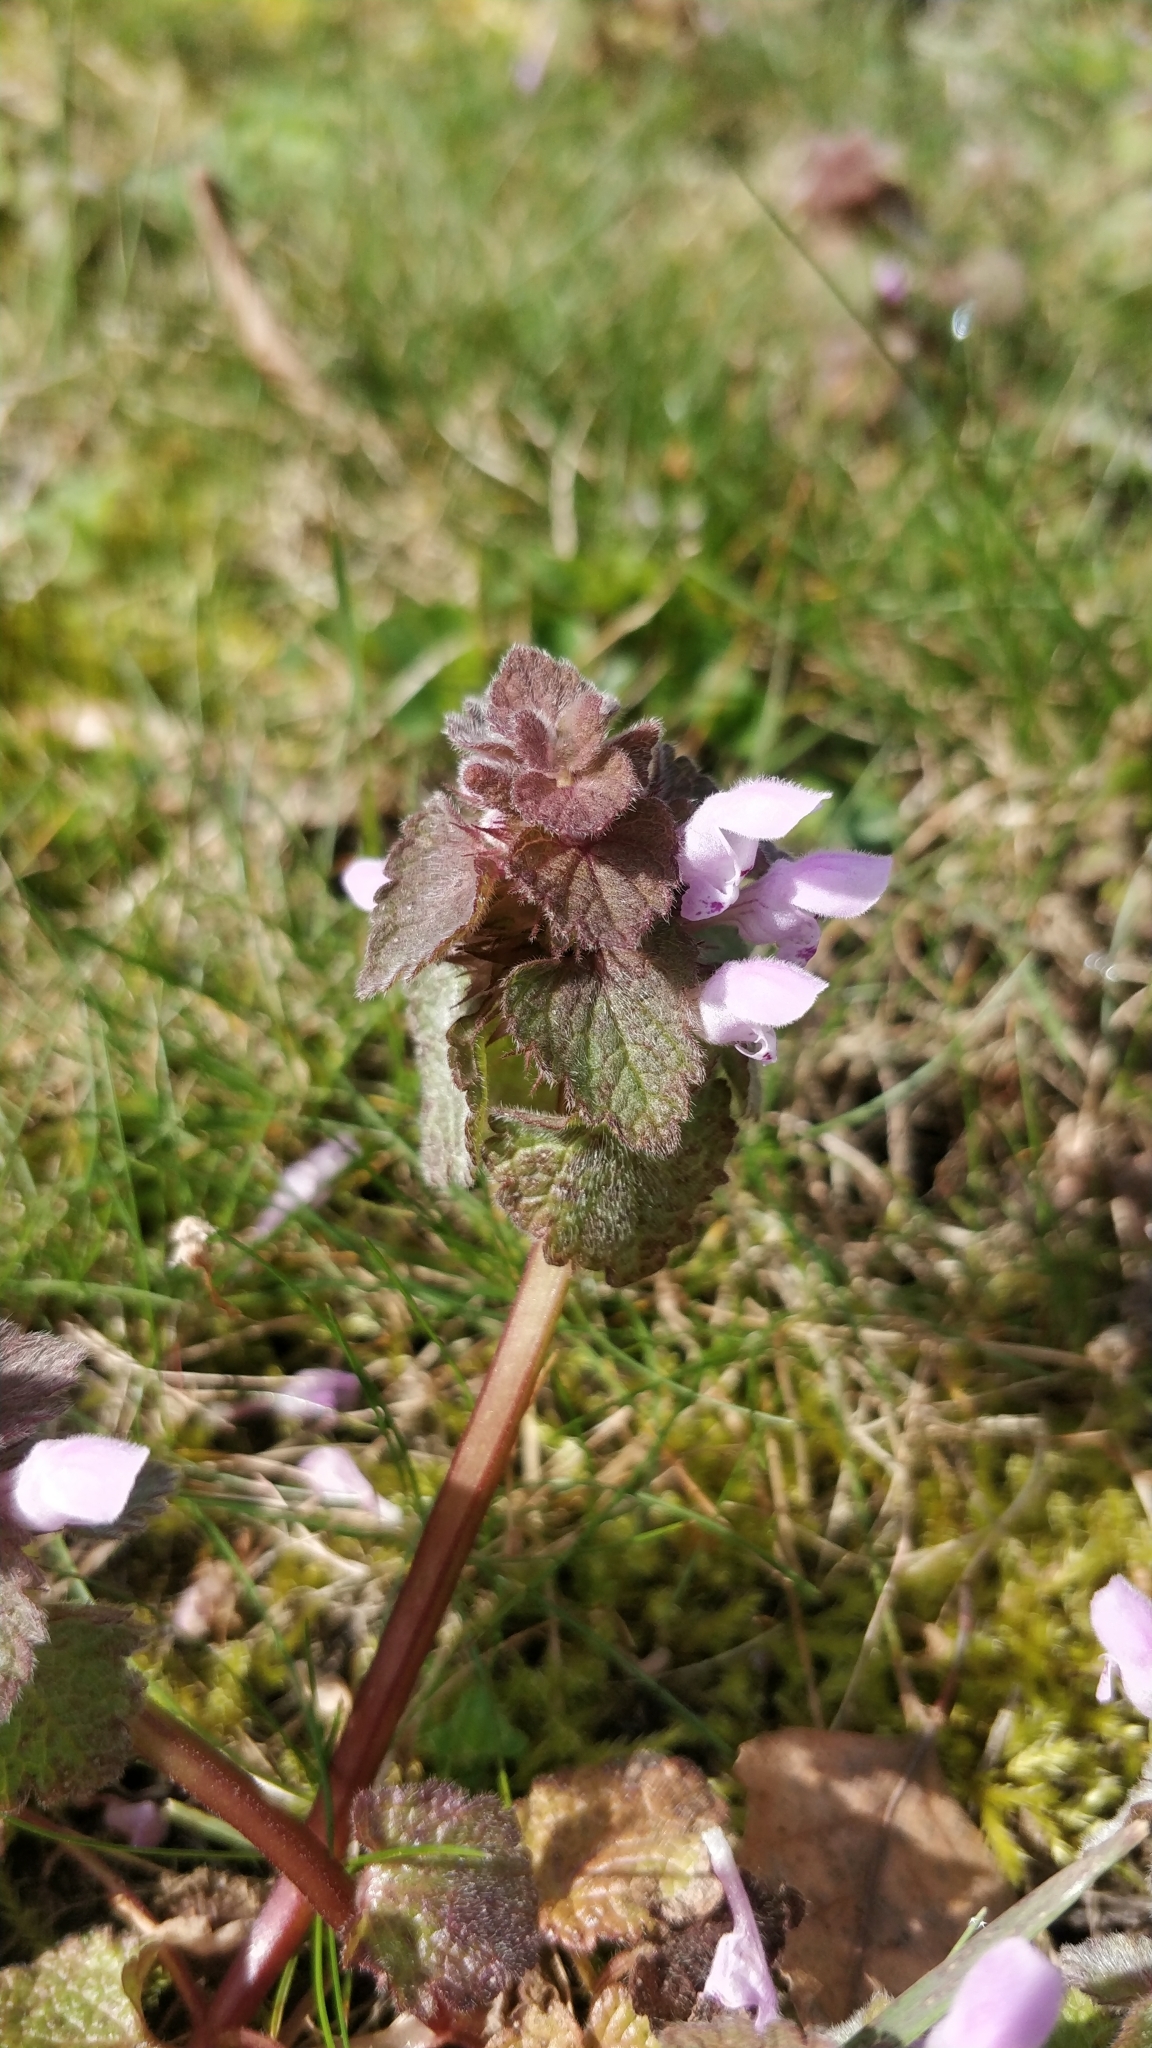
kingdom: Plantae
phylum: Tracheophyta
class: Magnoliopsida
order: Lamiales
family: Lamiaceae
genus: Lamium
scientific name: Lamium purpureum
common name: Red dead-nettle
